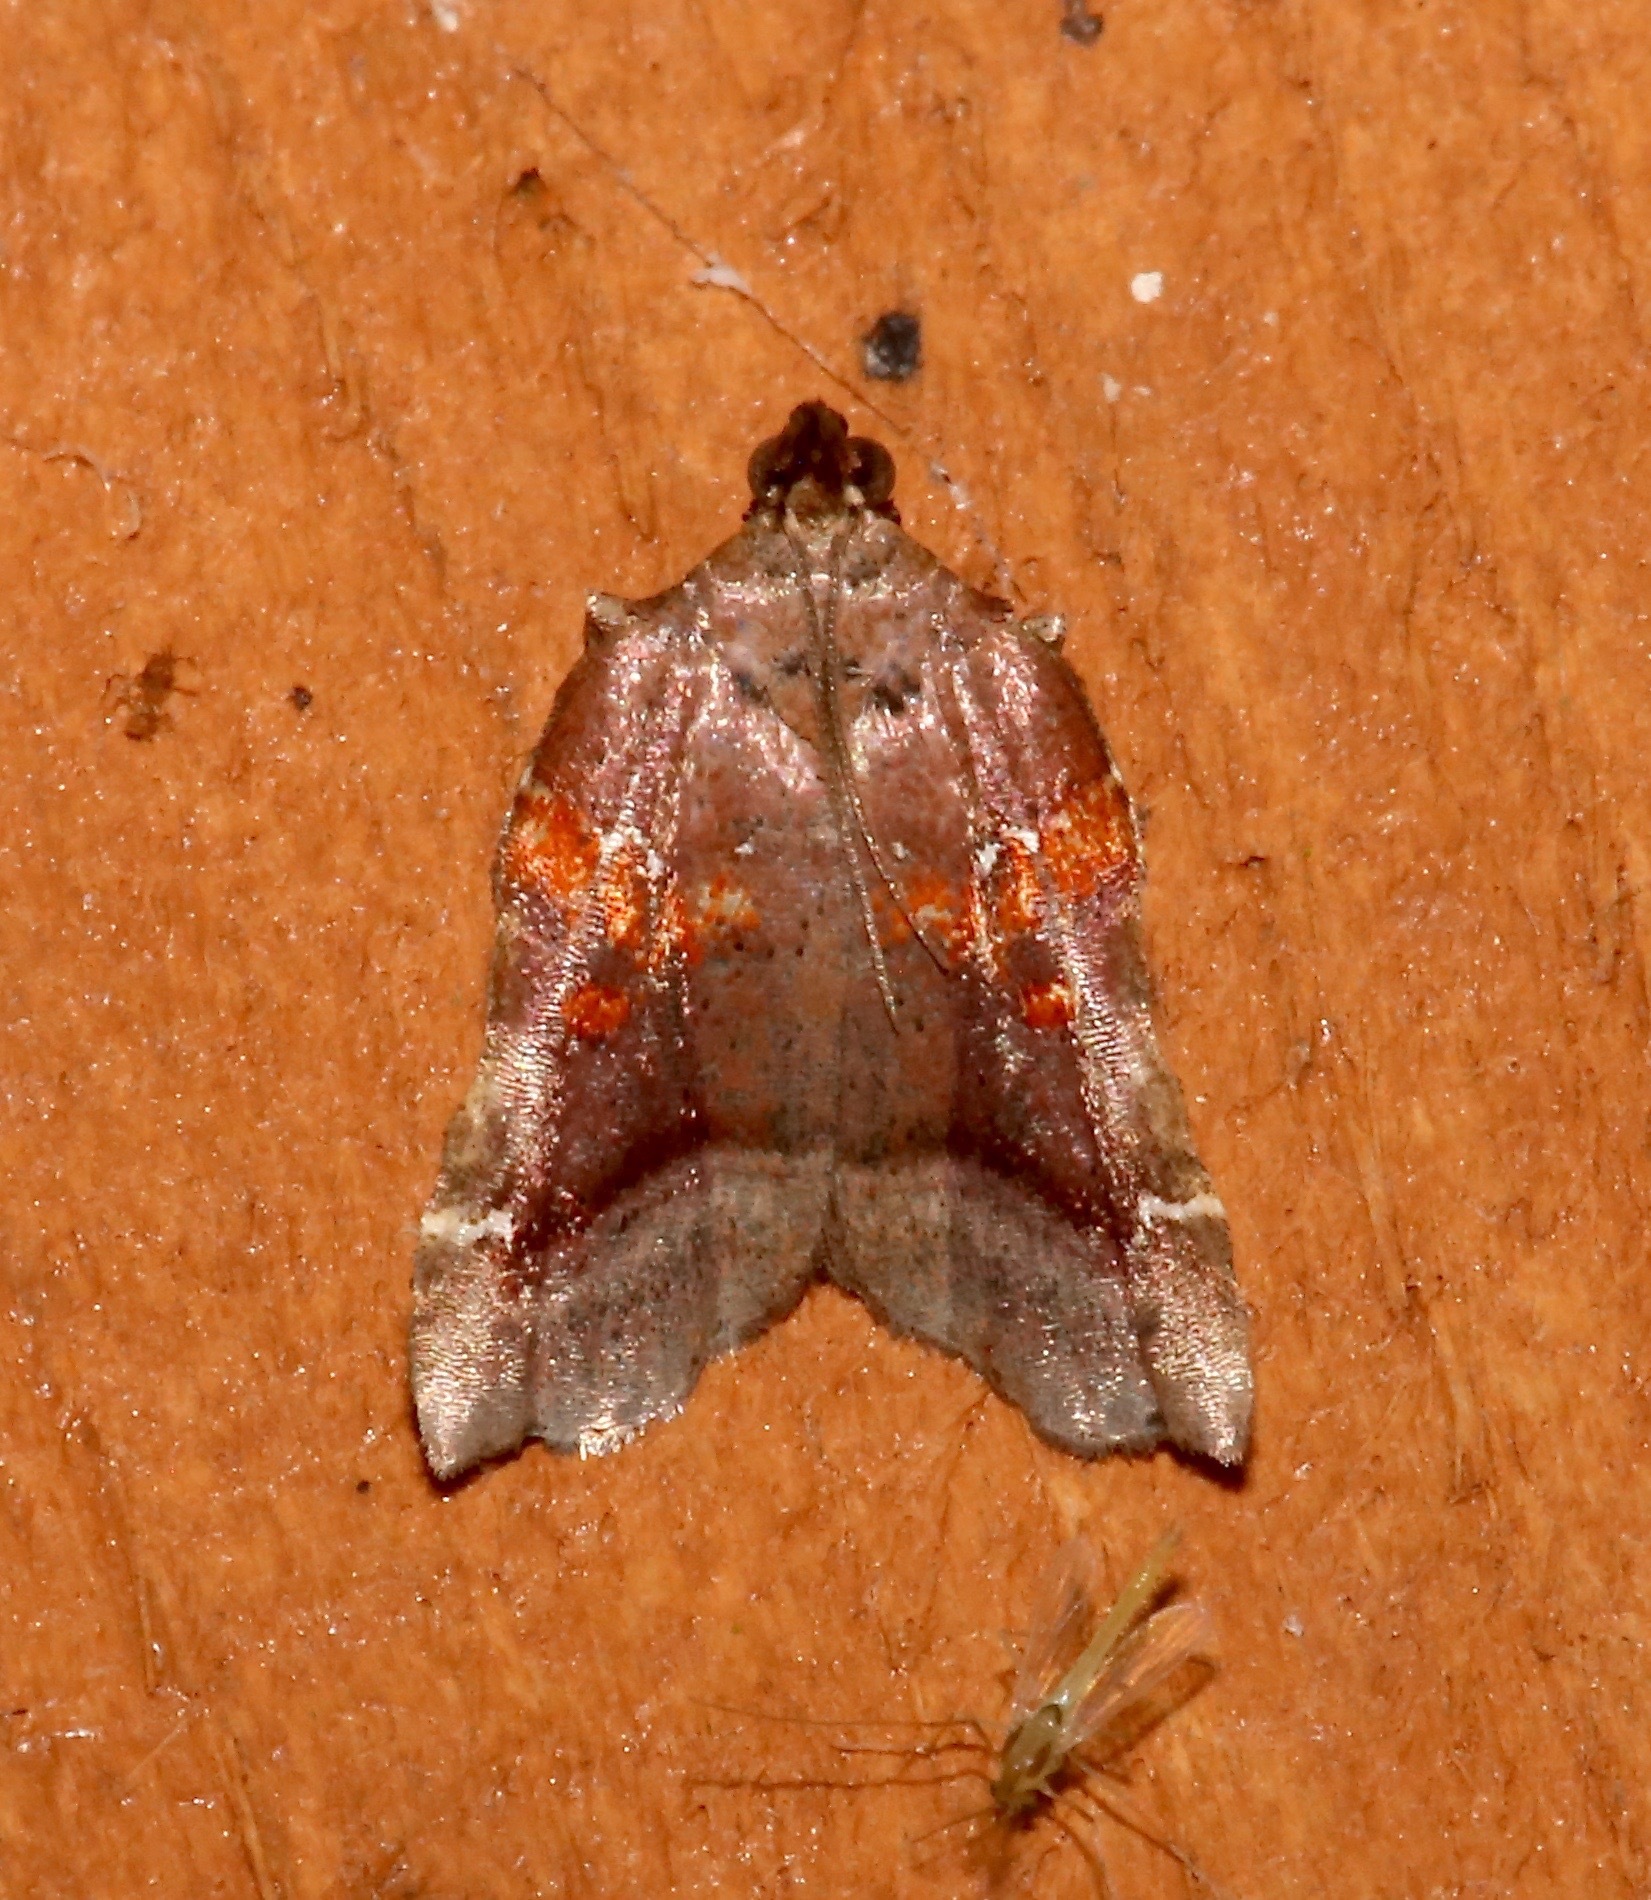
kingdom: Animalia
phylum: Arthropoda
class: Insecta
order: Lepidoptera
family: Pyralidae
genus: Clydonopteron
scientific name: Clydonopteron sacculana
